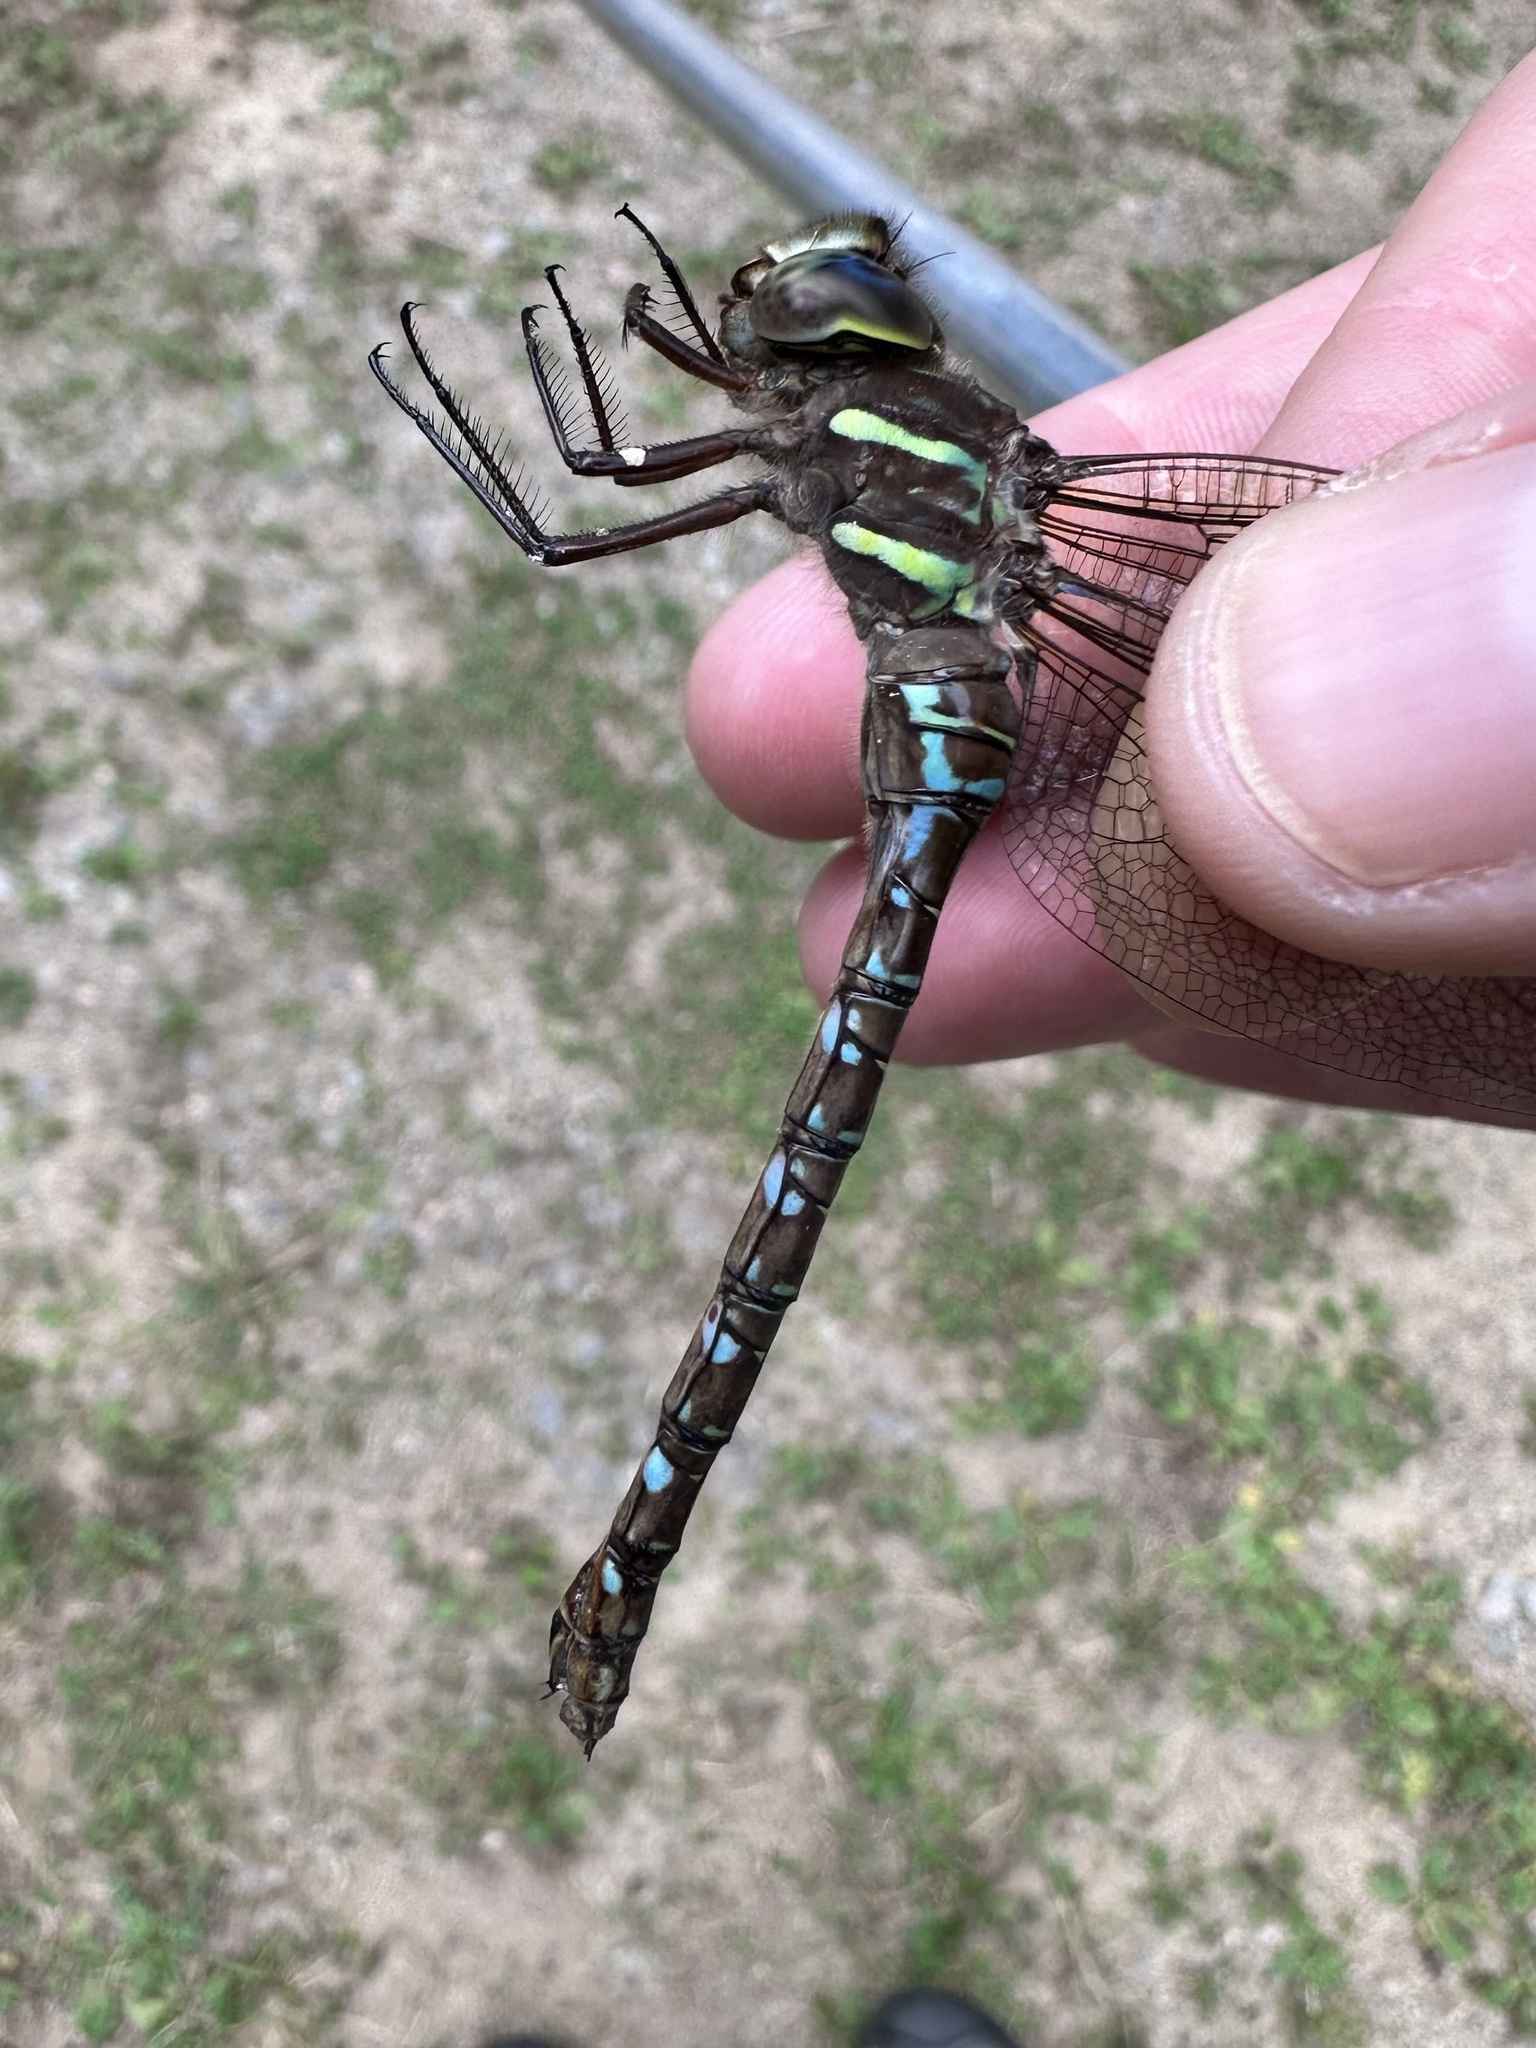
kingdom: Animalia
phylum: Arthropoda
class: Insecta
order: Odonata
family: Aeshnidae
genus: Aeshna
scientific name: Aeshna umbrosa
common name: Shadow darner
